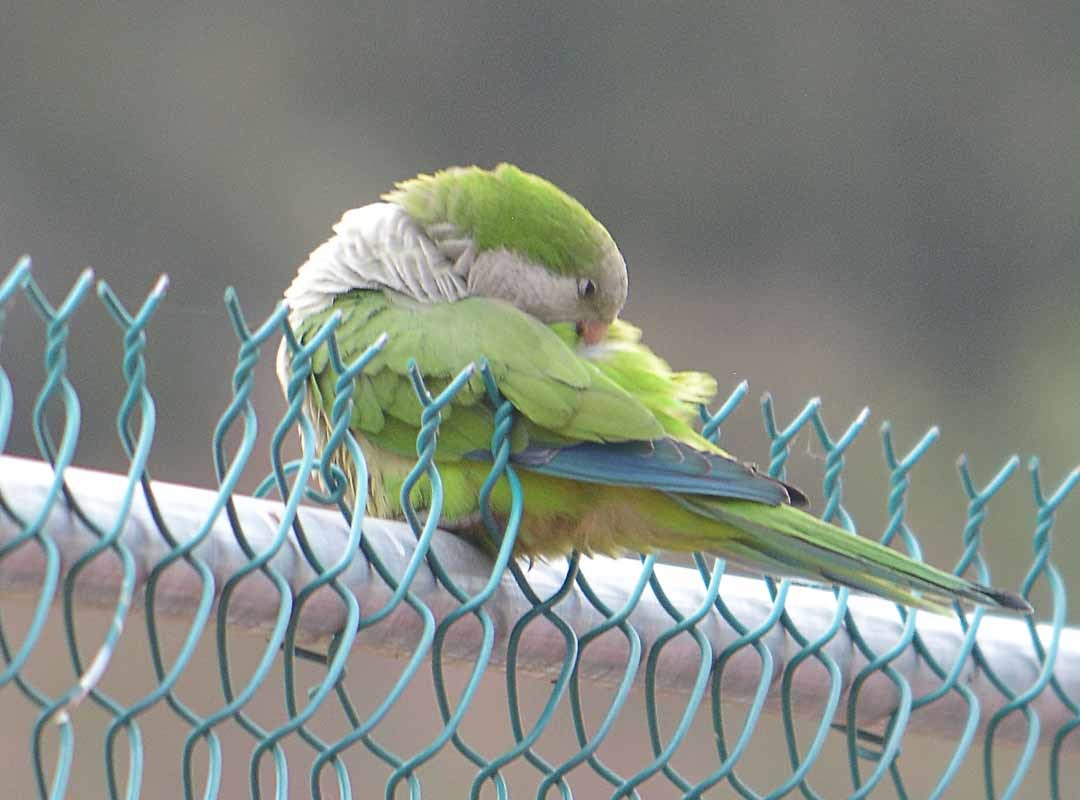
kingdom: Animalia
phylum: Chordata
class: Aves
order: Psittaciformes
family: Psittacidae
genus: Myiopsitta
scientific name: Myiopsitta monachus
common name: Monk parakeet
